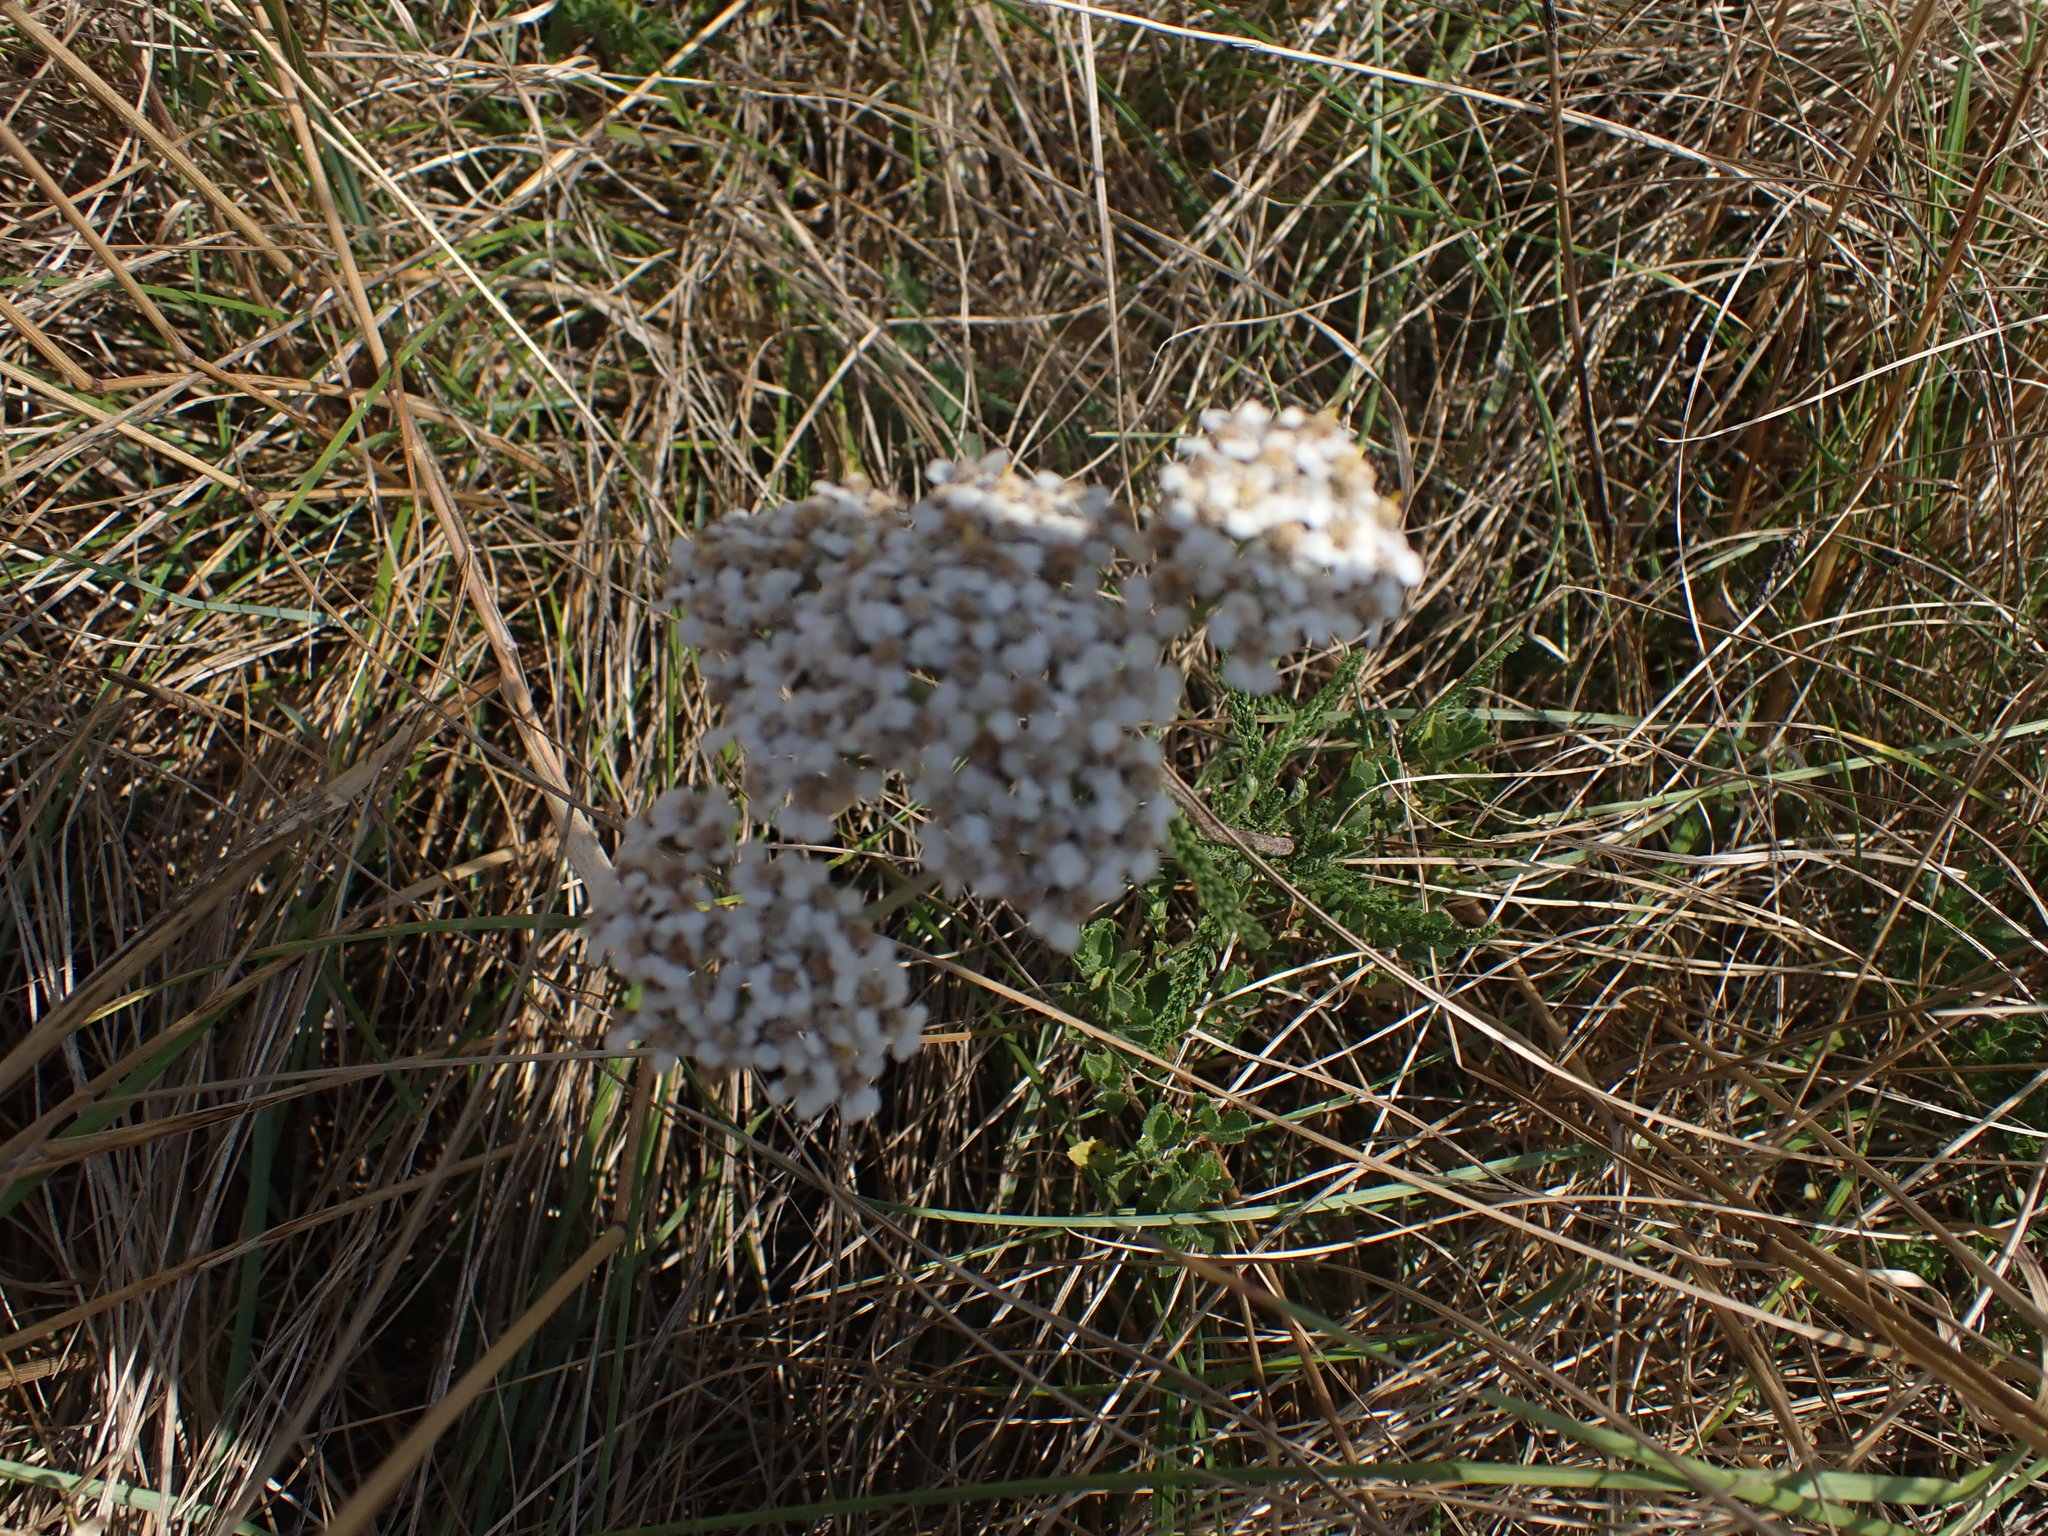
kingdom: Plantae
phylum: Tracheophyta
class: Magnoliopsida
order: Asterales
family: Asteraceae
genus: Achillea
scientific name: Achillea millefolium
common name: Yarrow
